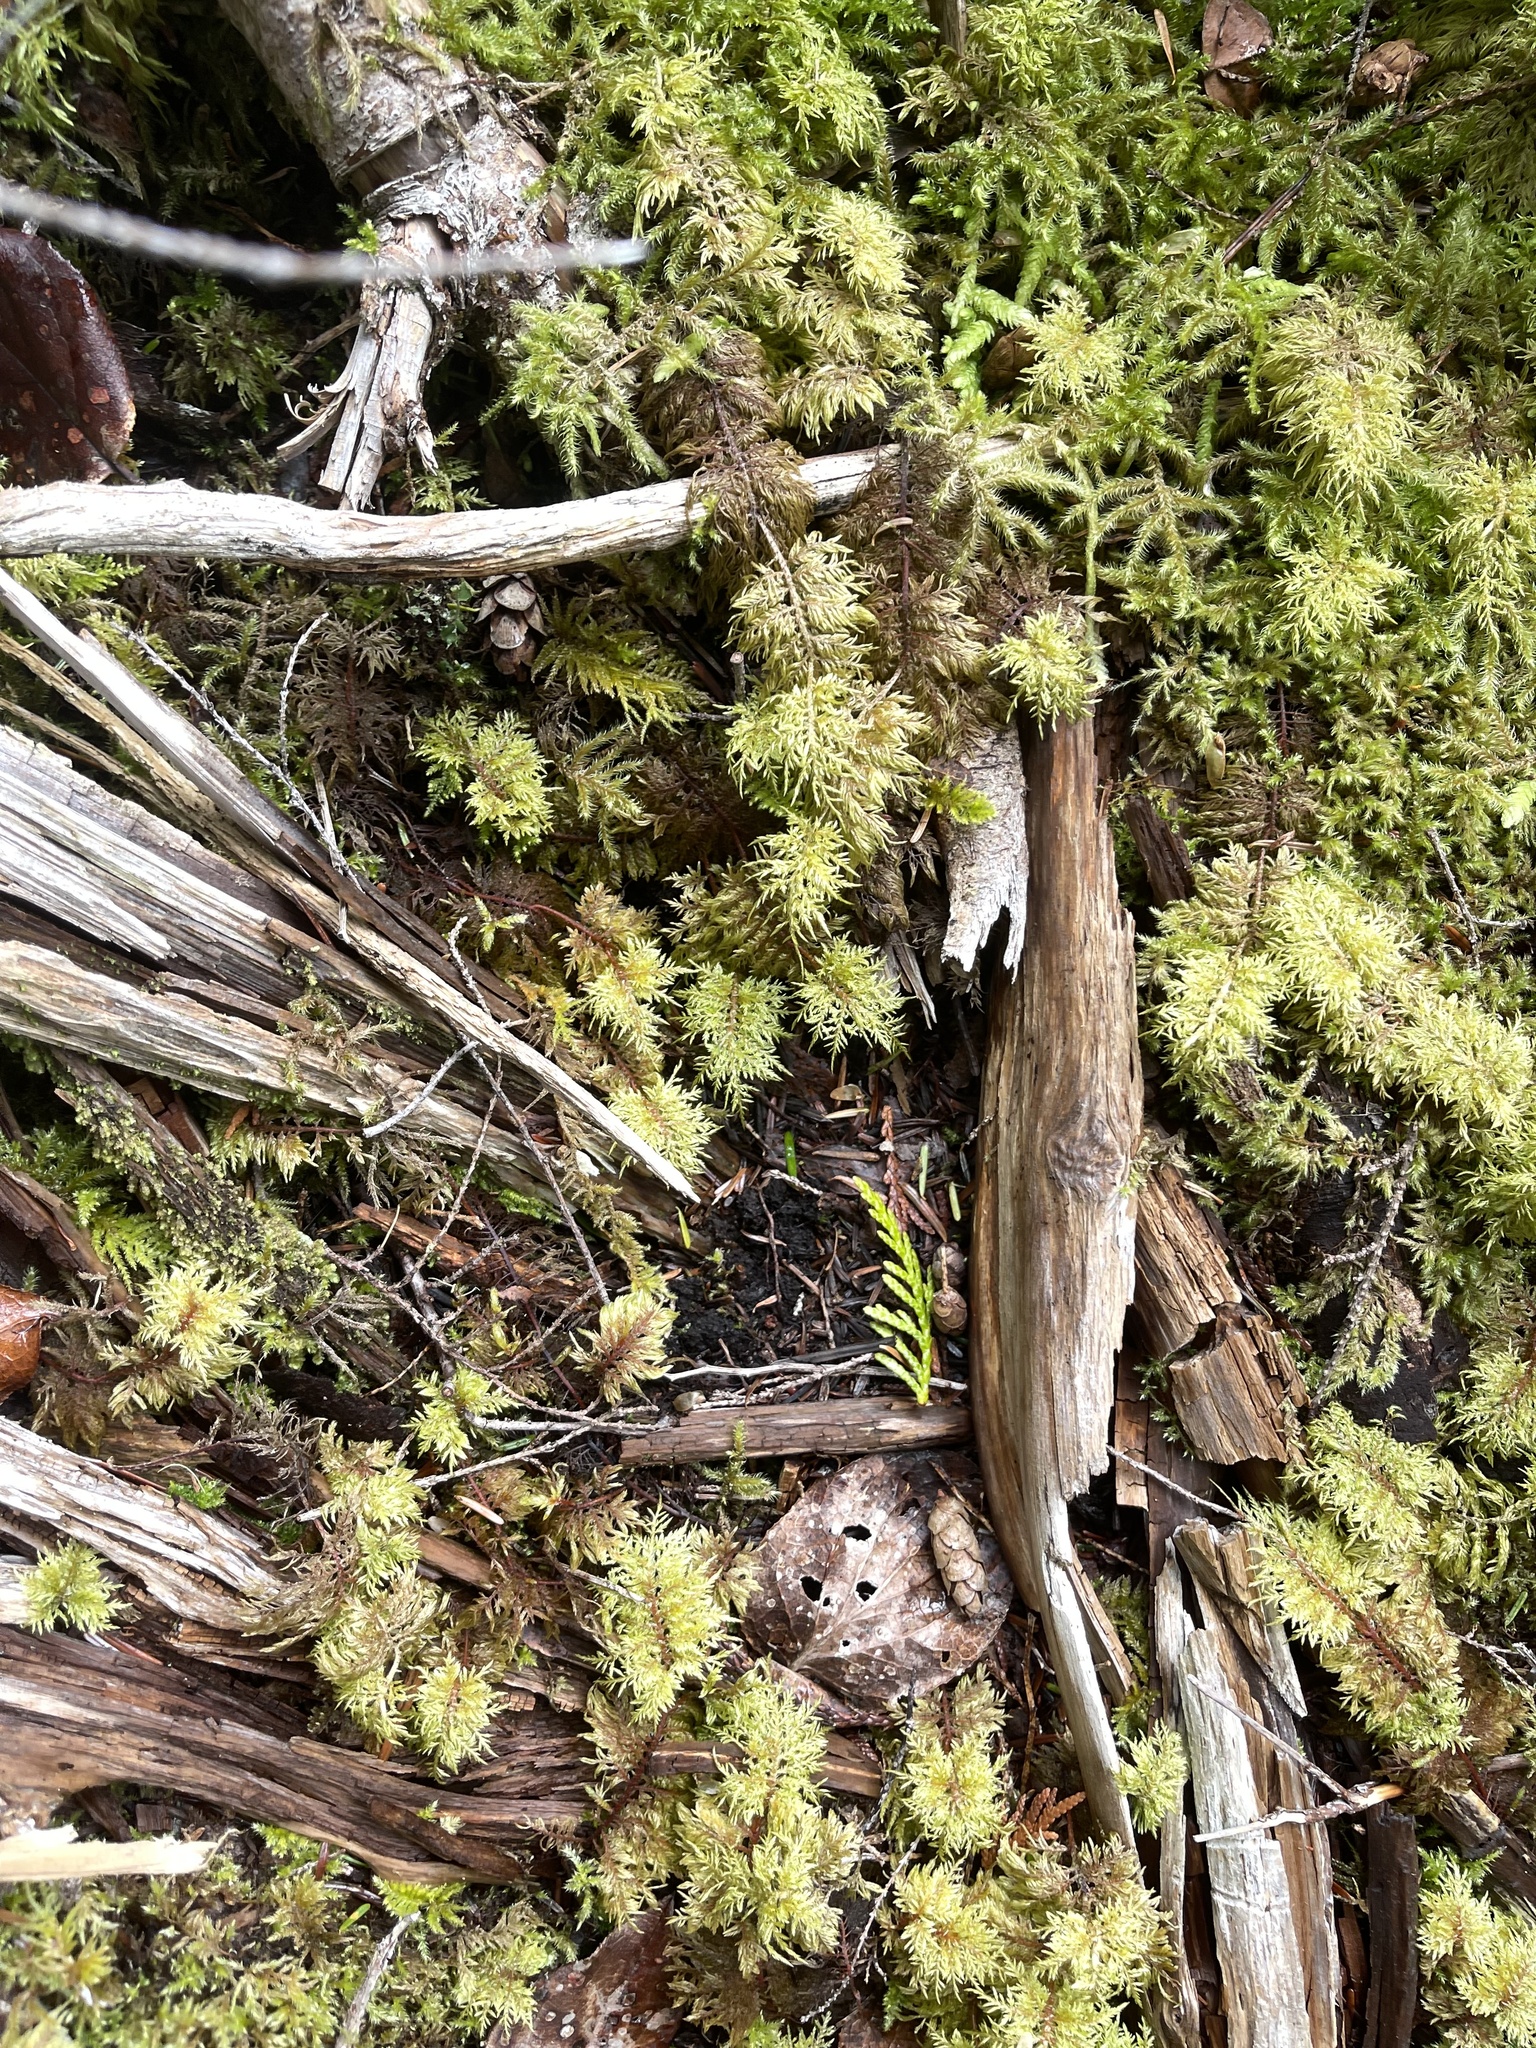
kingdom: Plantae
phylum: Bryophyta
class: Bryopsida
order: Hypnales
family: Hylocomiaceae
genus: Hylocomium
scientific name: Hylocomium splendens
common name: Stairstep moss
